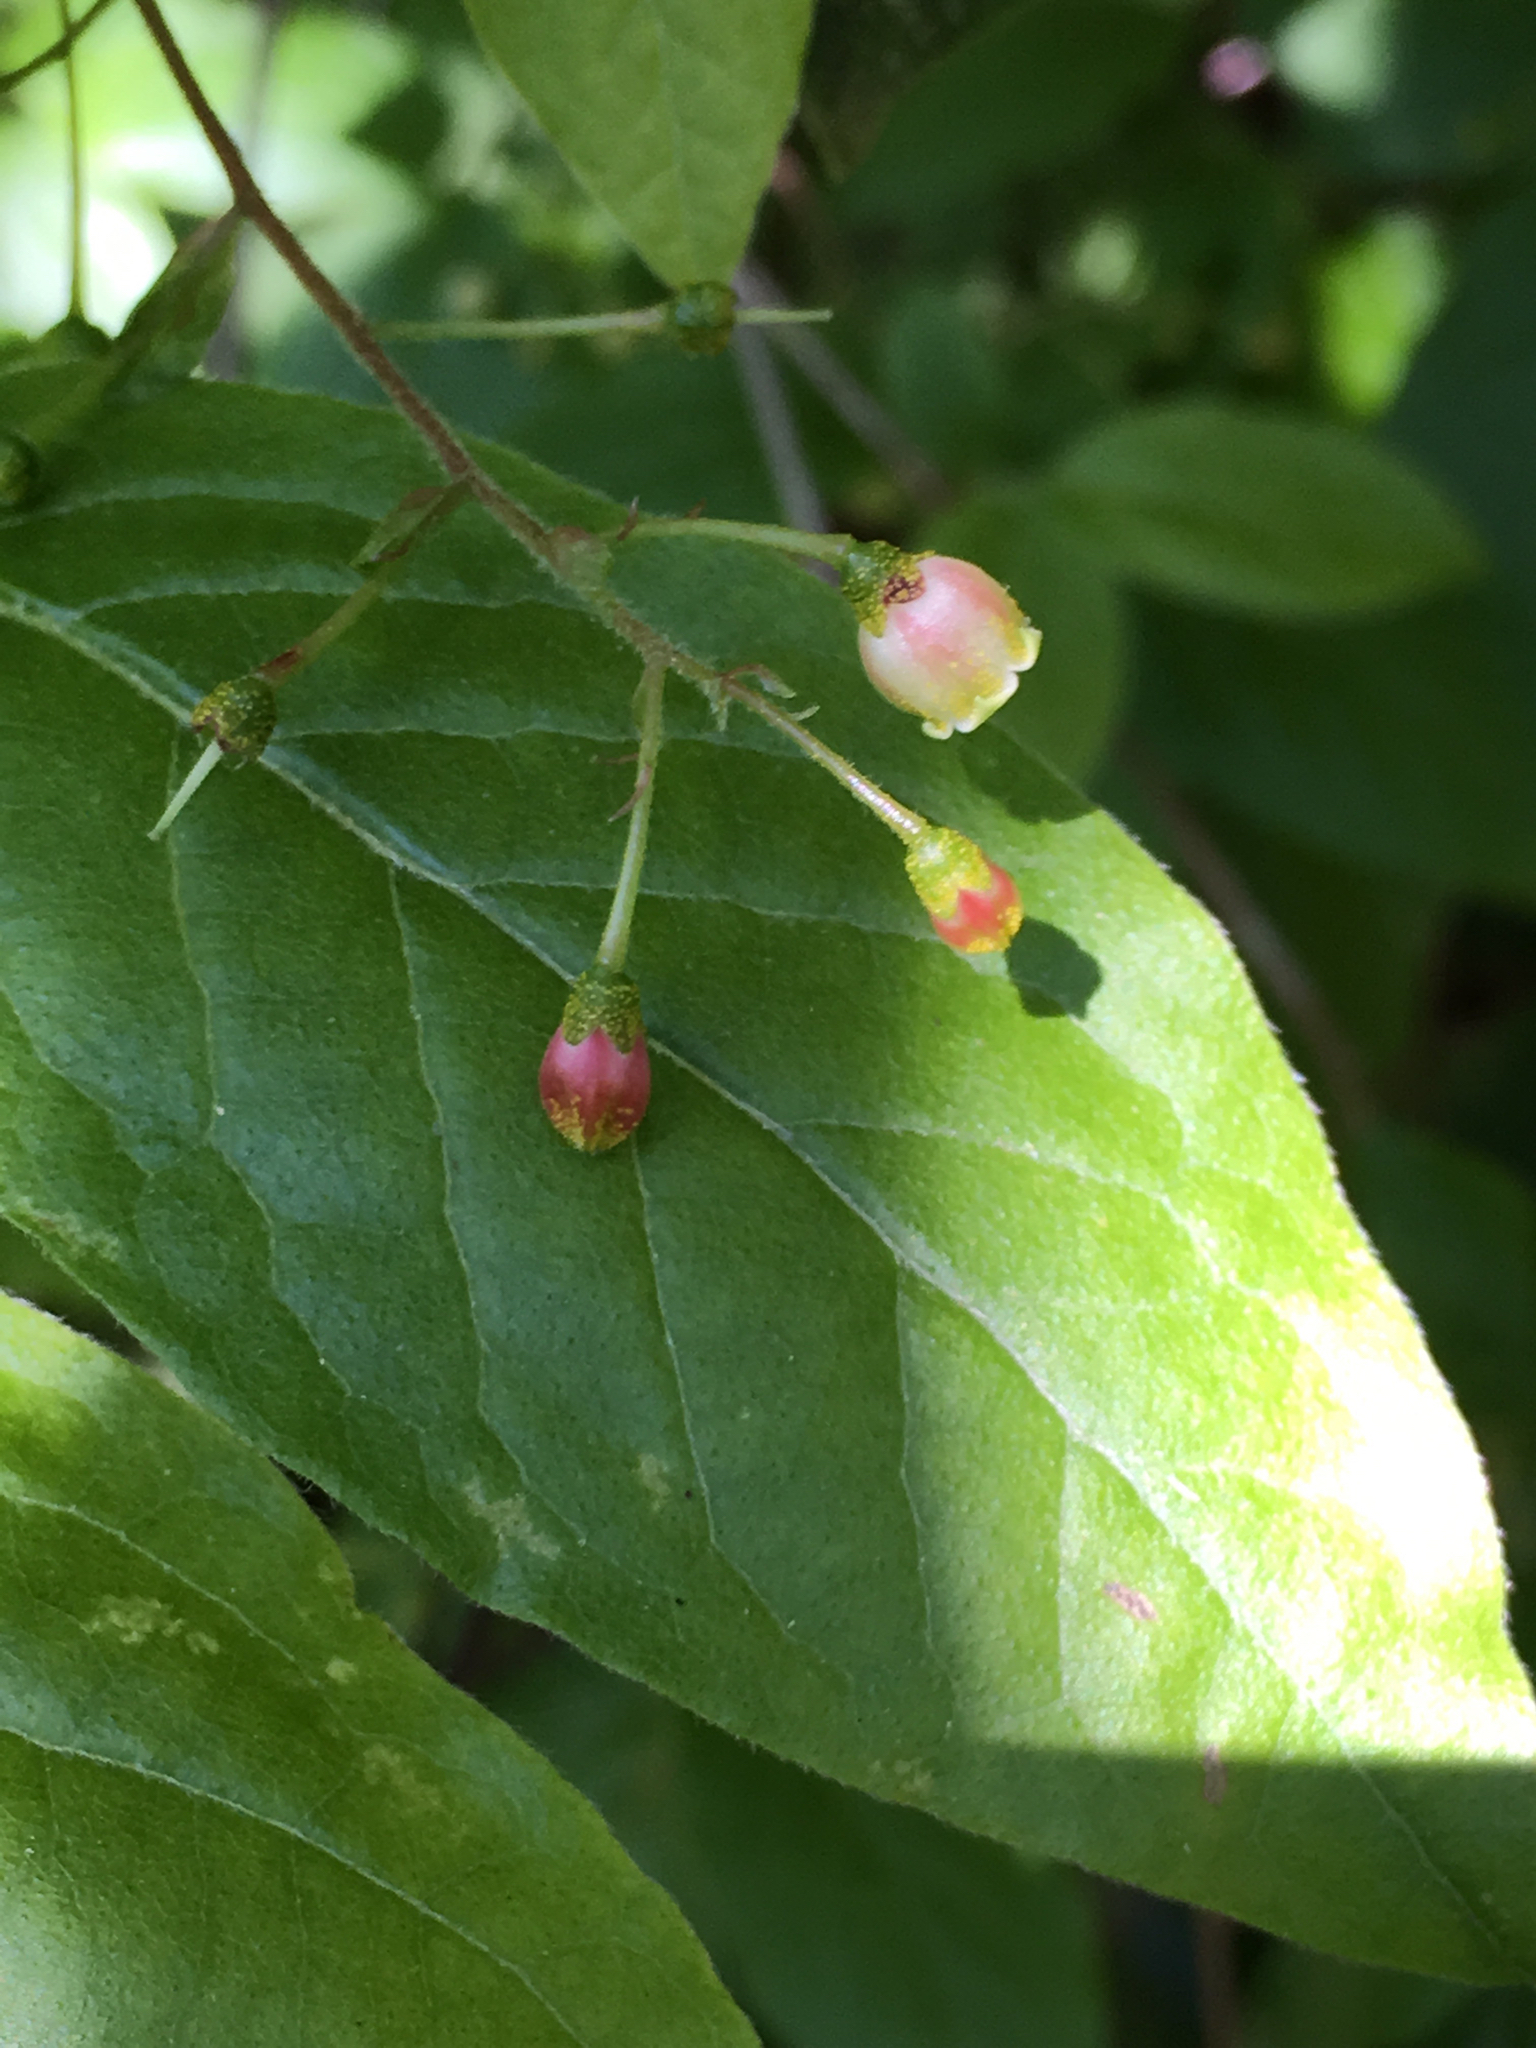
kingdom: Plantae
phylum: Tracheophyta
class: Magnoliopsida
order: Ericales
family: Ericaceae
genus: Gaylussacia
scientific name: Gaylussacia ursina
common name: Bear huckleberry
